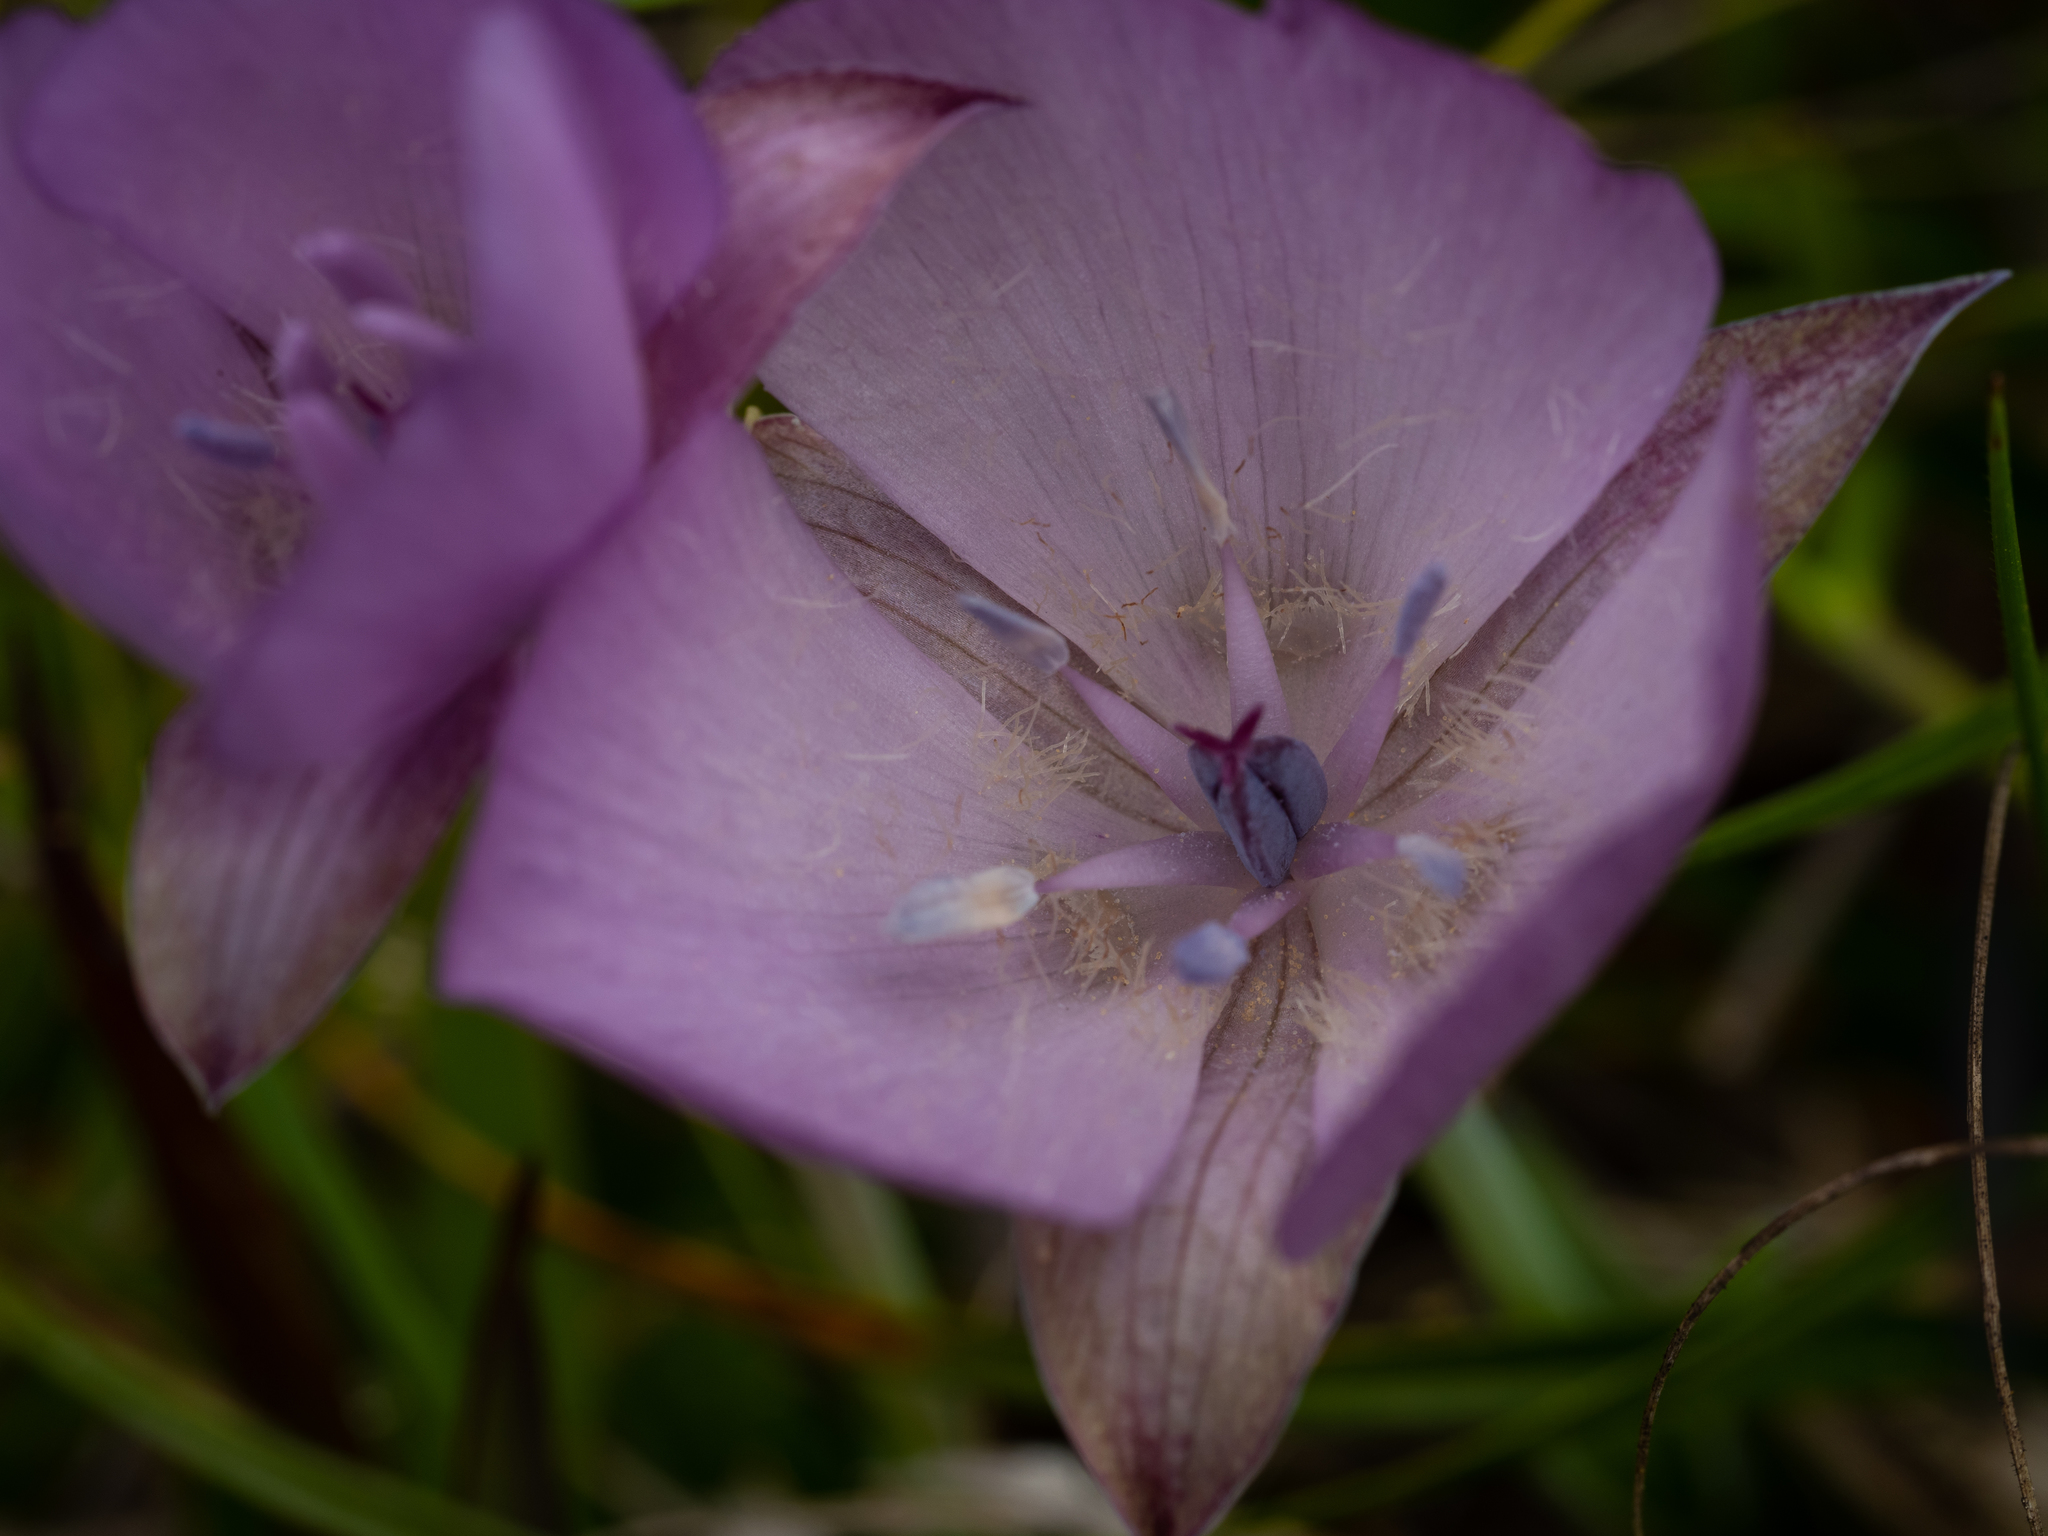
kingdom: Plantae
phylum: Tracheophyta
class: Liliopsida
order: Liliales
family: Liliaceae
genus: Calochortus
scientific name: Calochortus uniflorus
